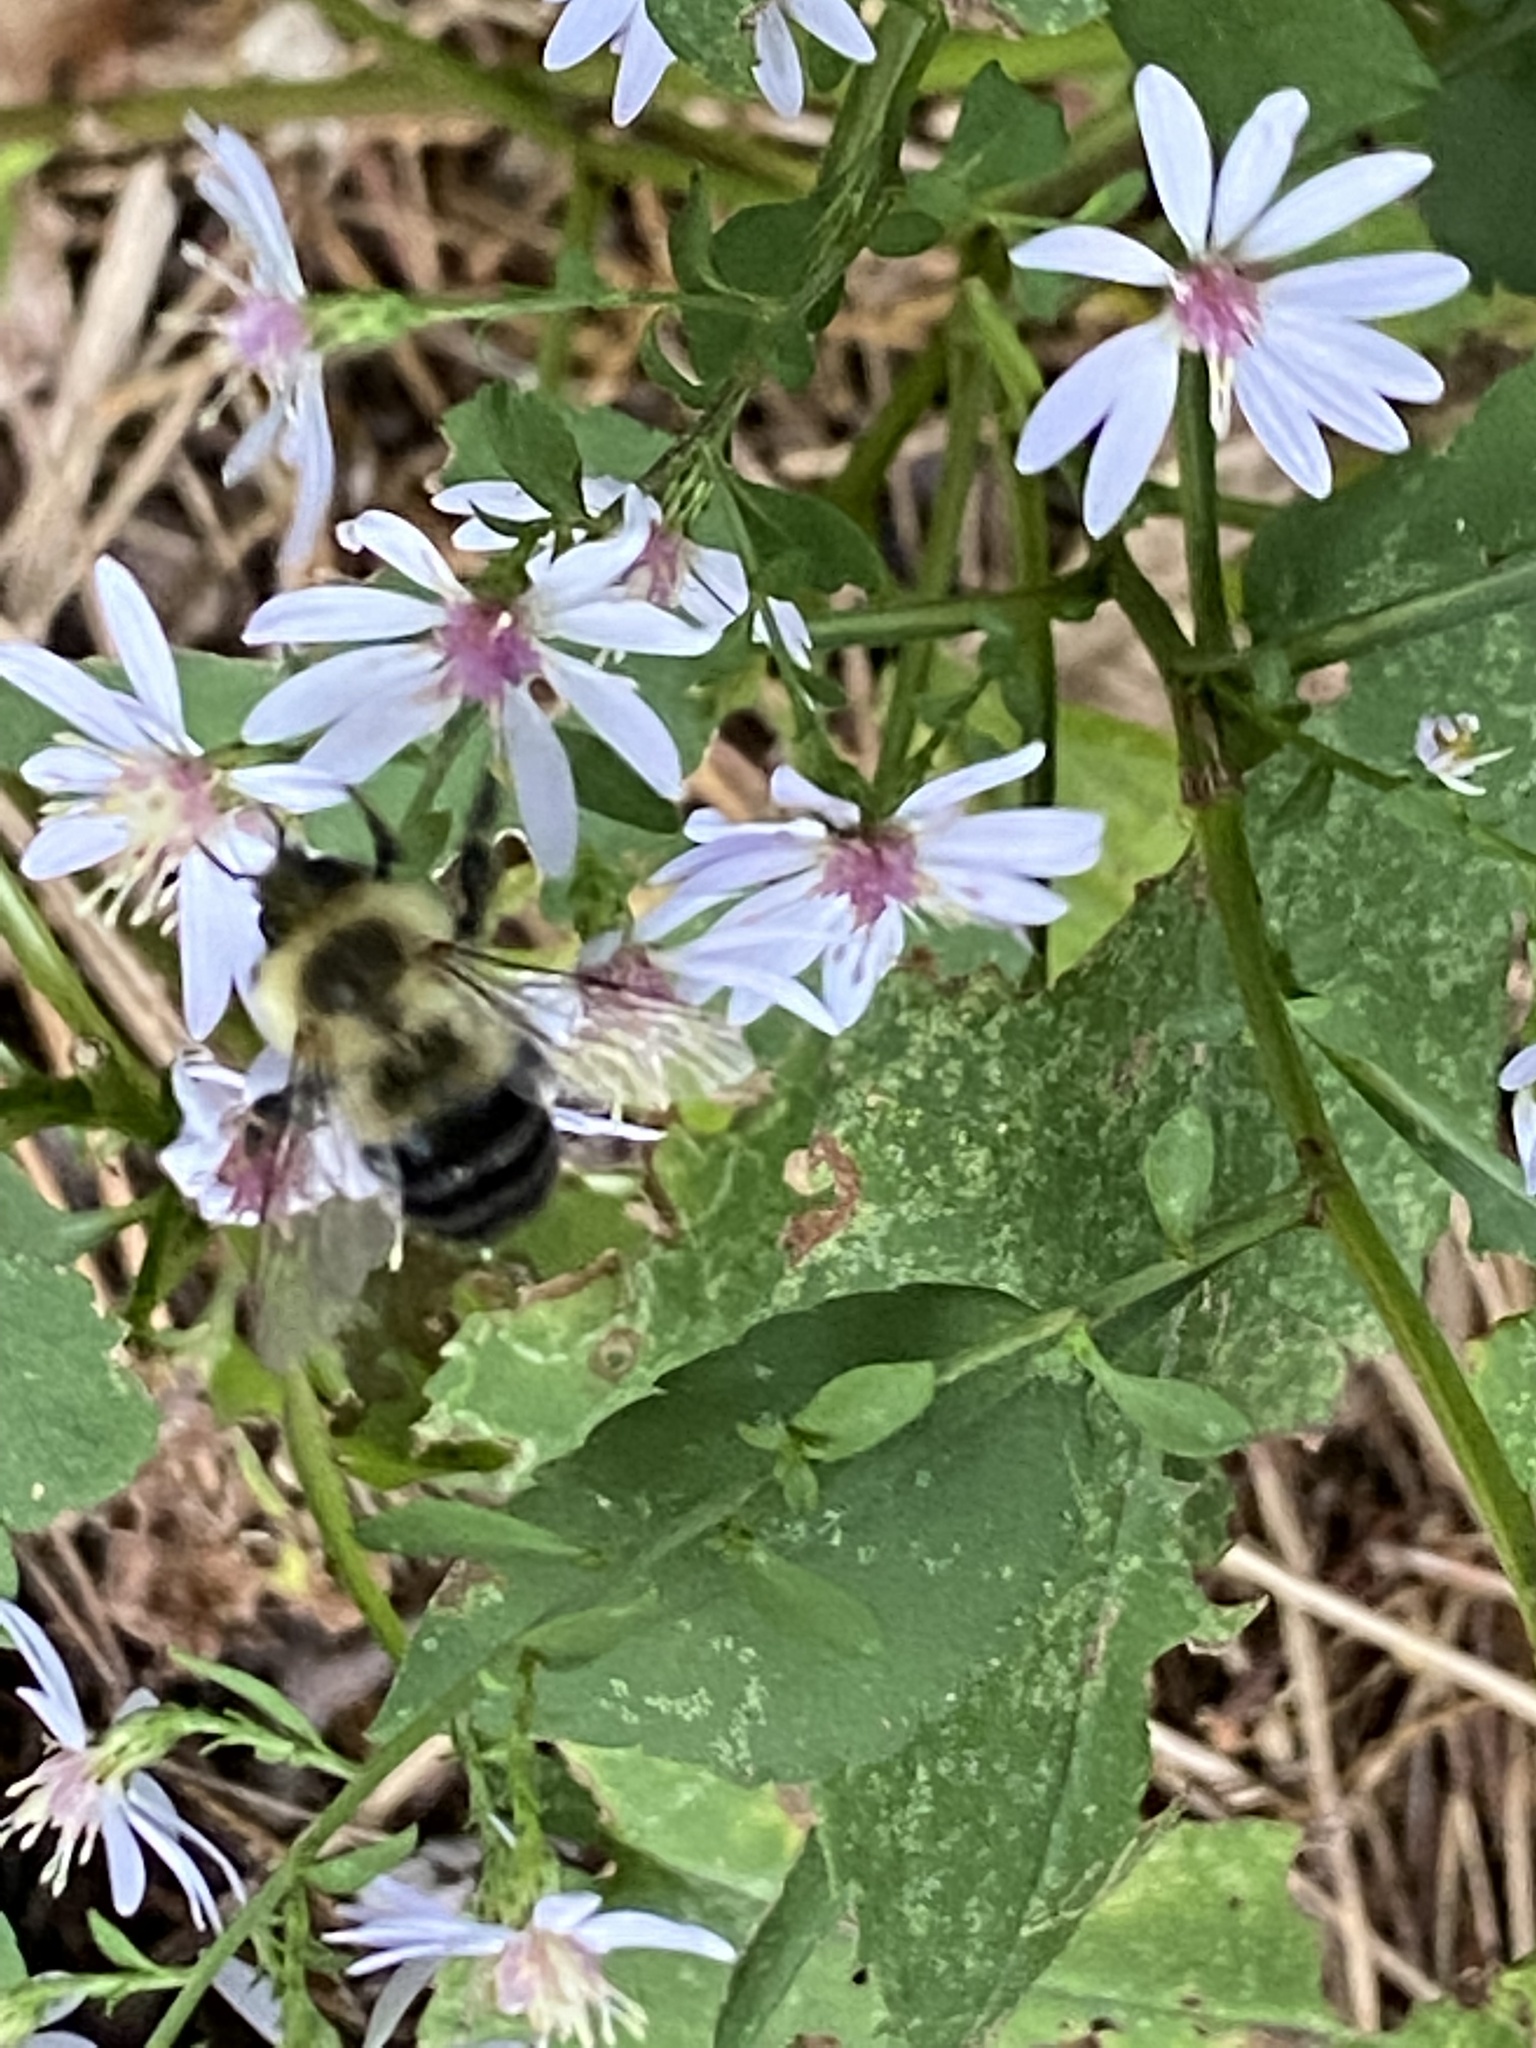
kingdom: Animalia
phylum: Arthropoda
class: Insecta
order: Hymenoptera
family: Apidae
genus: Bombus
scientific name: Bombus impatiens
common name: Common eastern bumble bee
